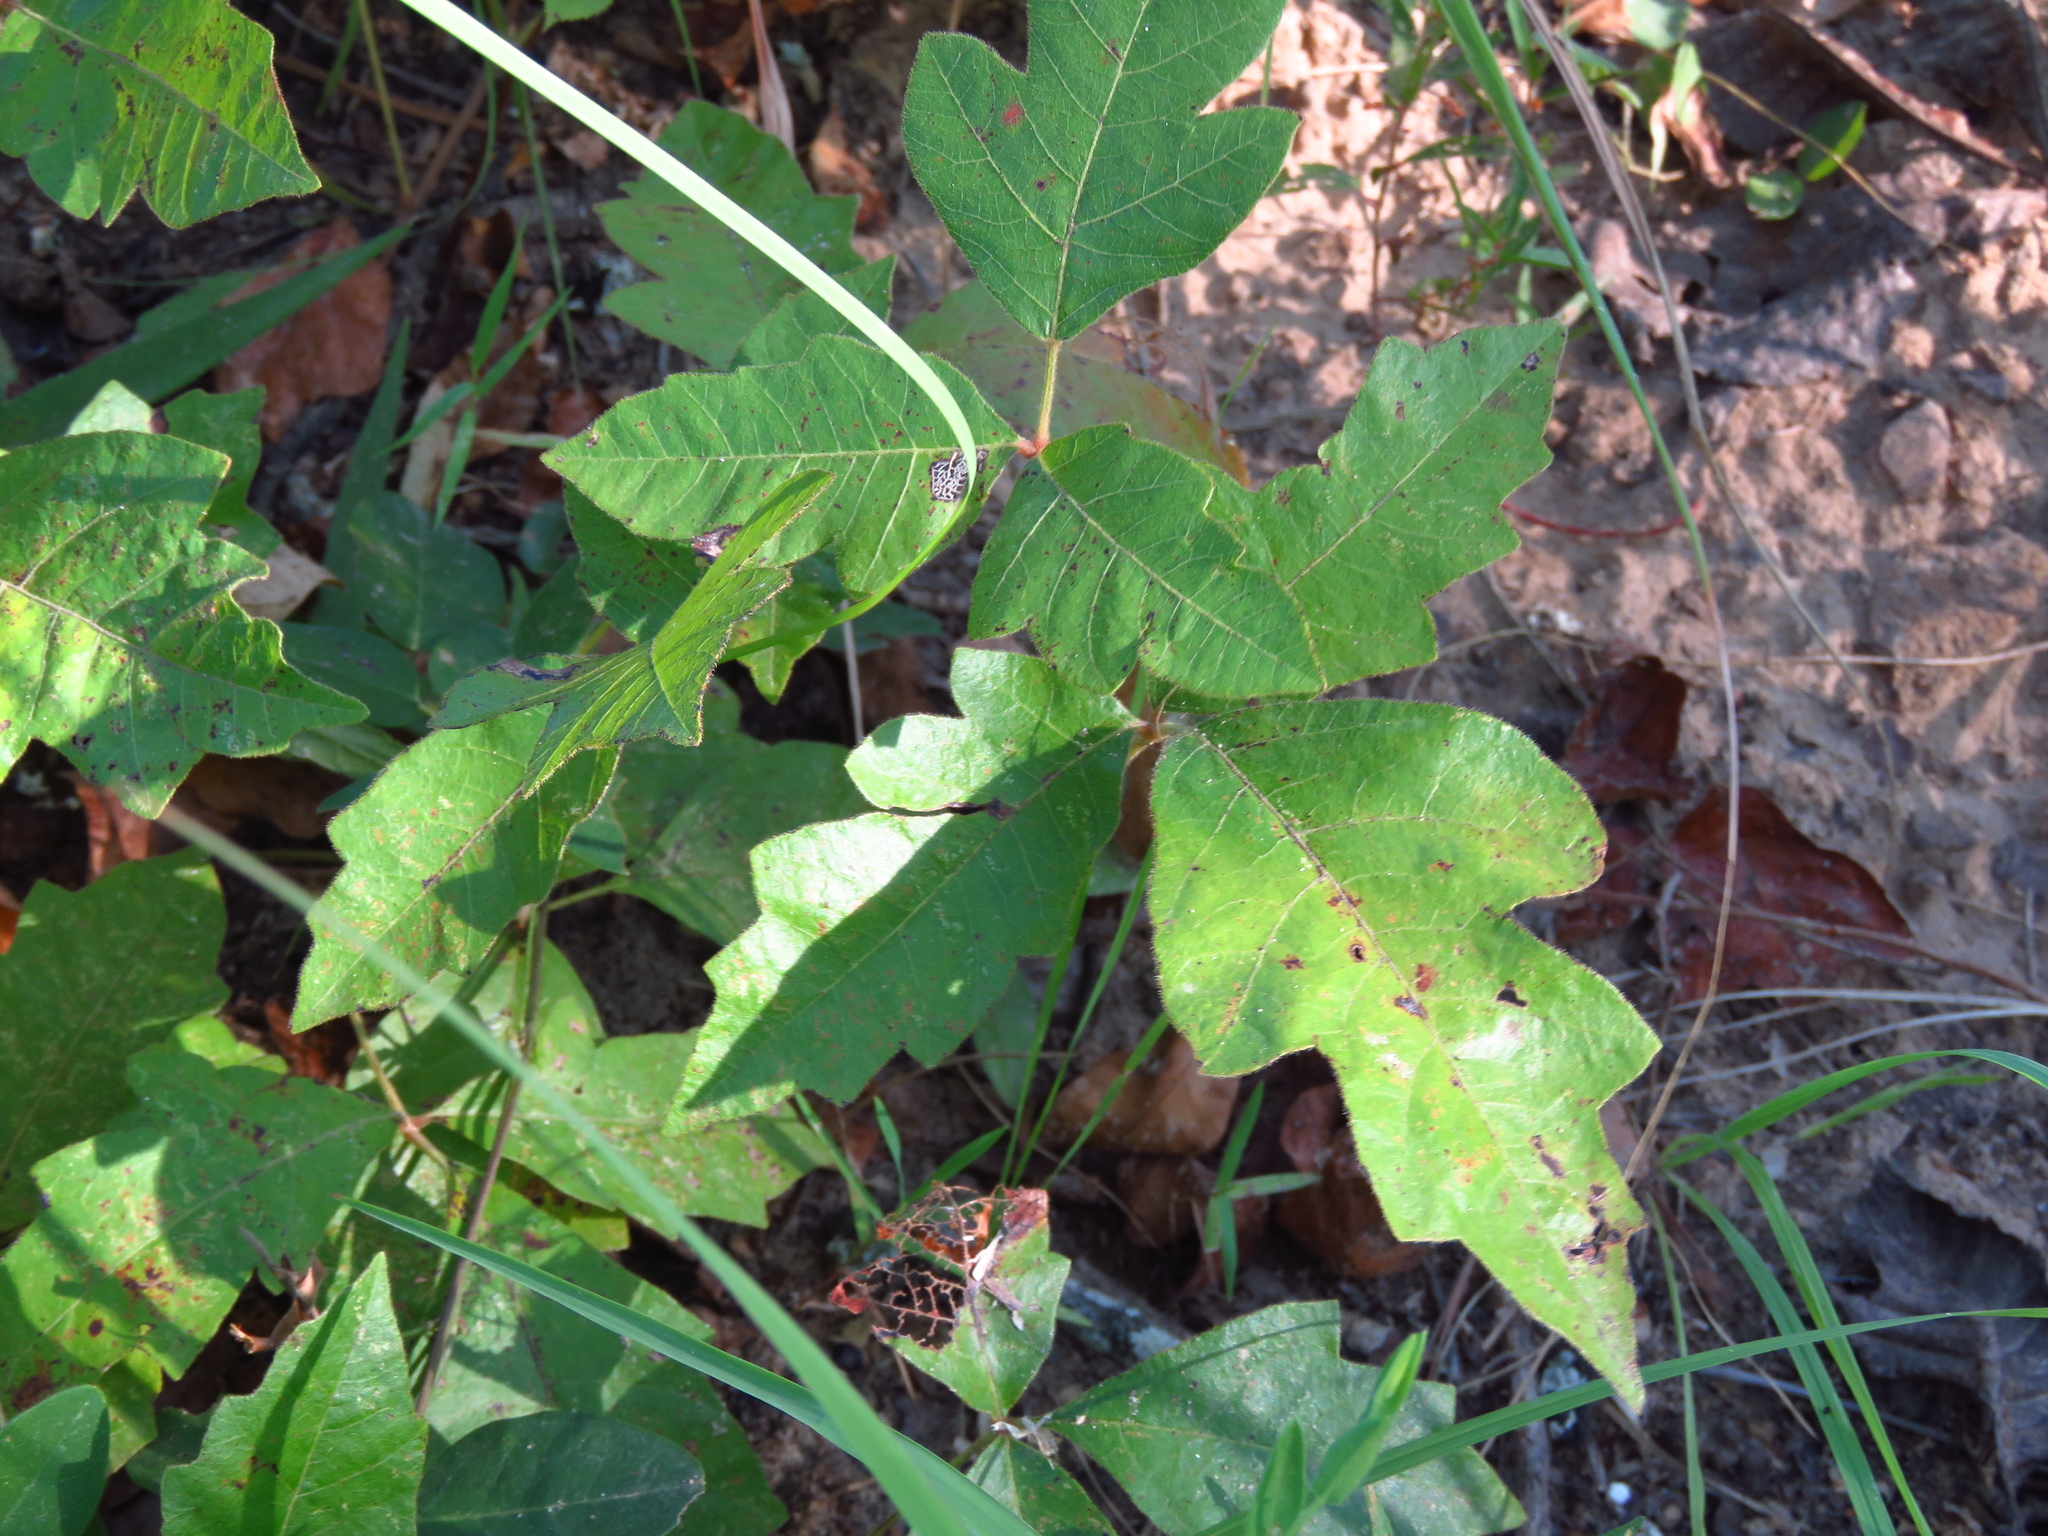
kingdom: Plantae
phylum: Tracheophyta
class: Magnoliopsida
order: Sapindales
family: Anacardiaceae
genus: Toxicodendron
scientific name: Toxicodendron radicans
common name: Poison ivy
